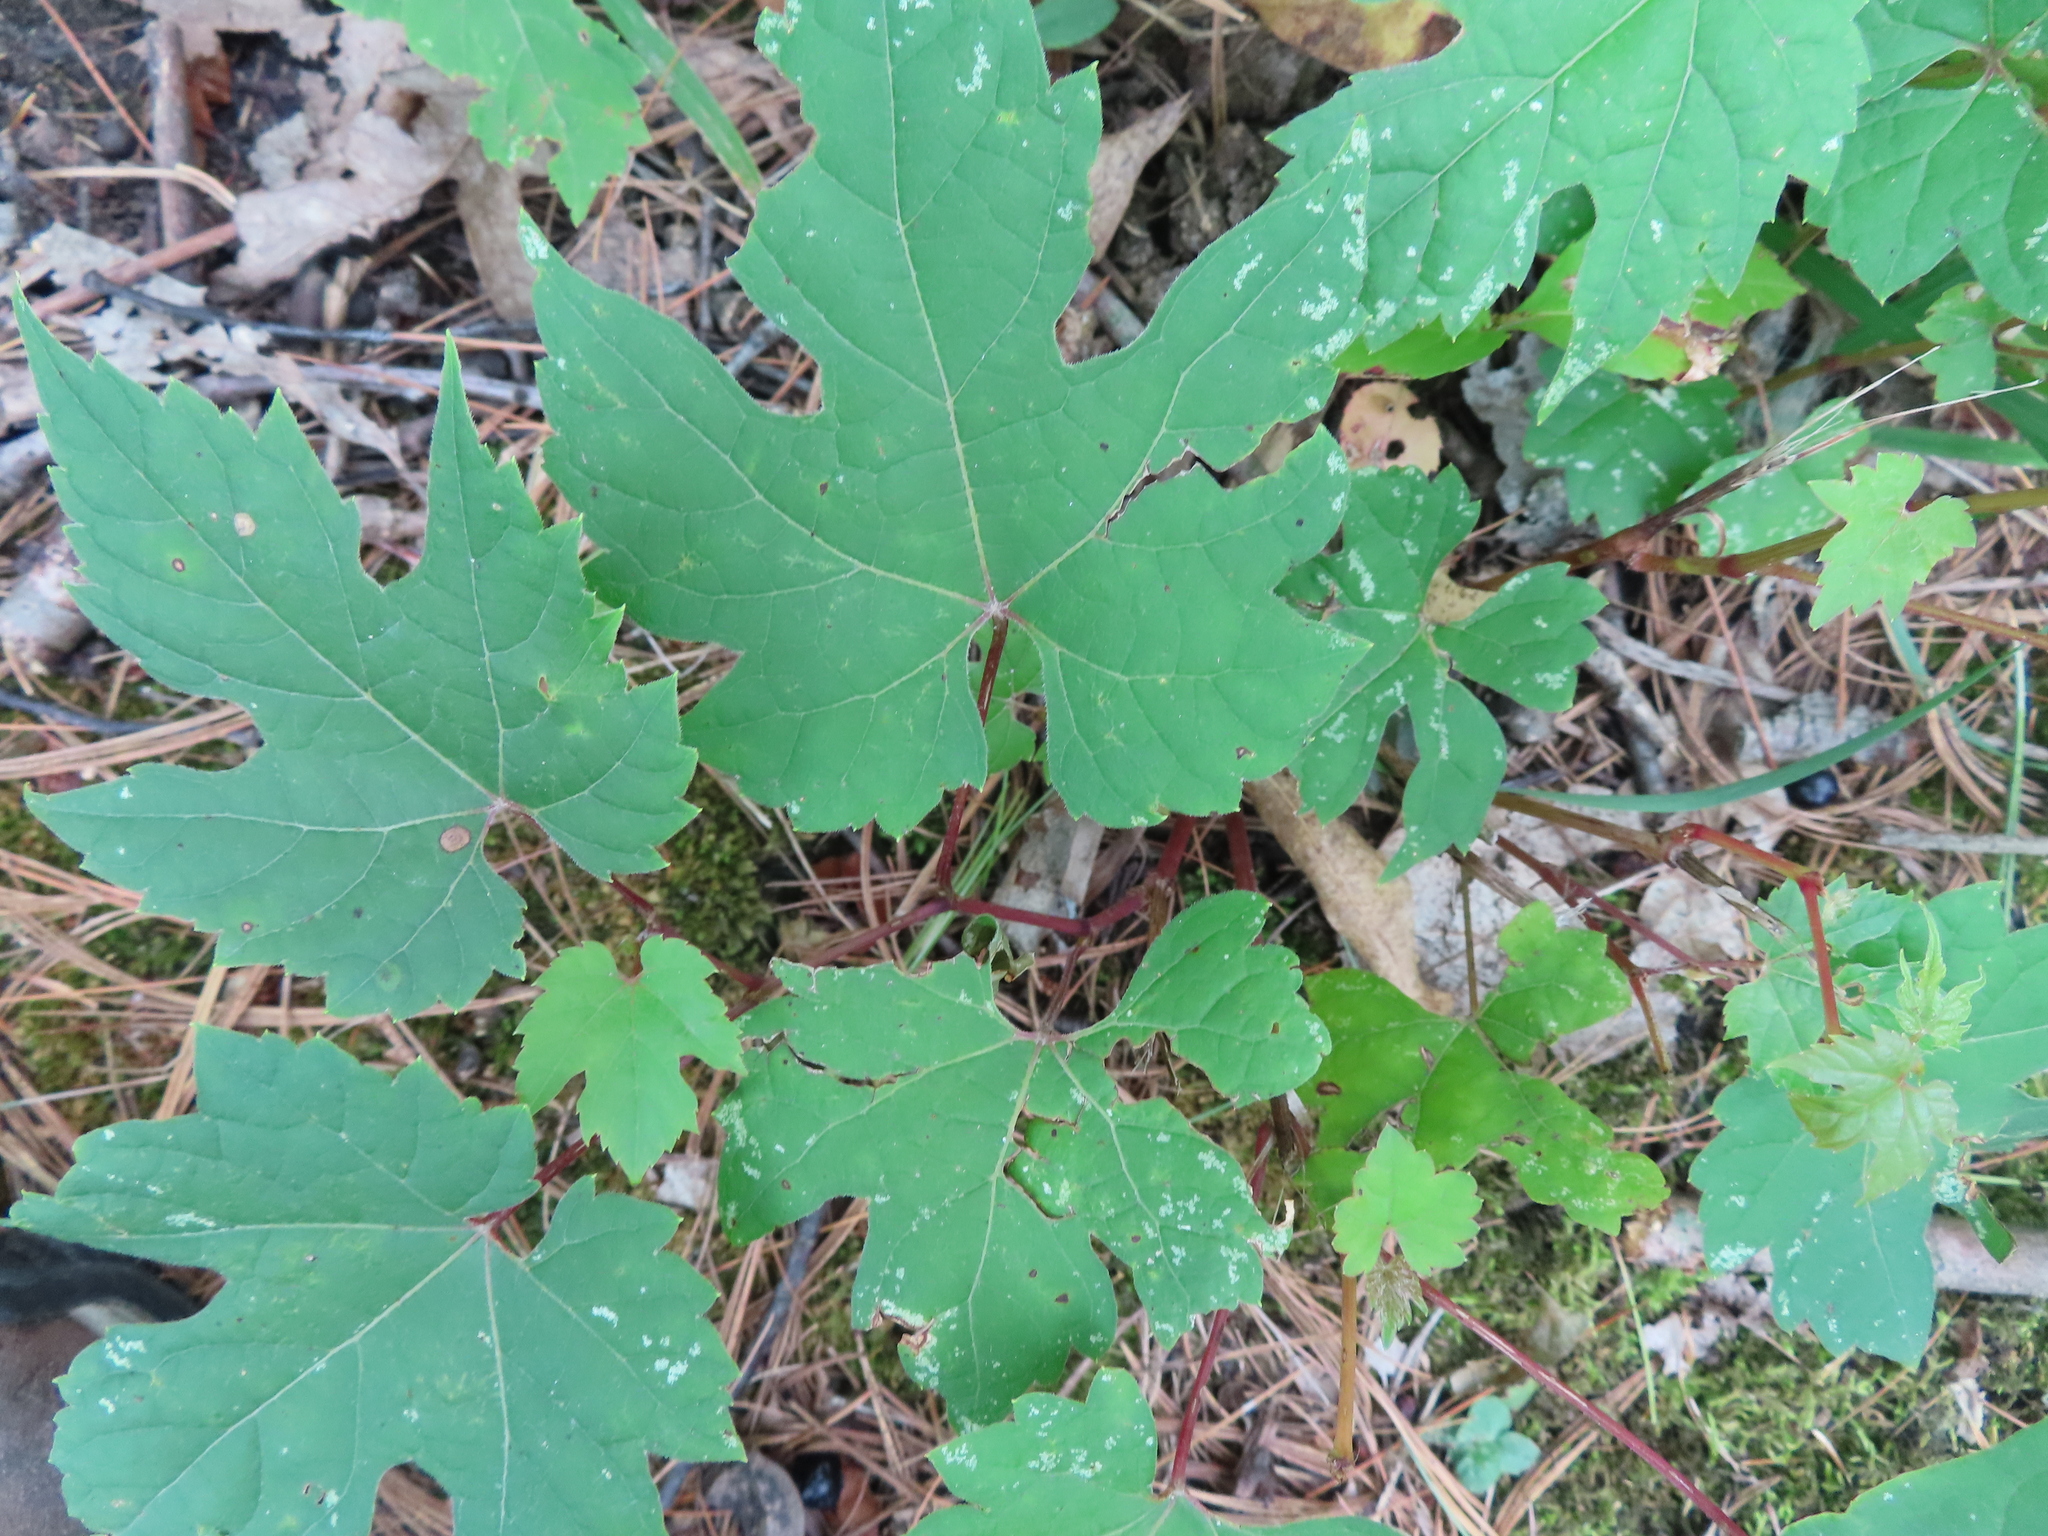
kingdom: Plantae
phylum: Tracheophyta
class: Magnoliopsida
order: Vitales
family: Vitaceae
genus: Vitis
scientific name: Vitis riparia
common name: Frost grape
